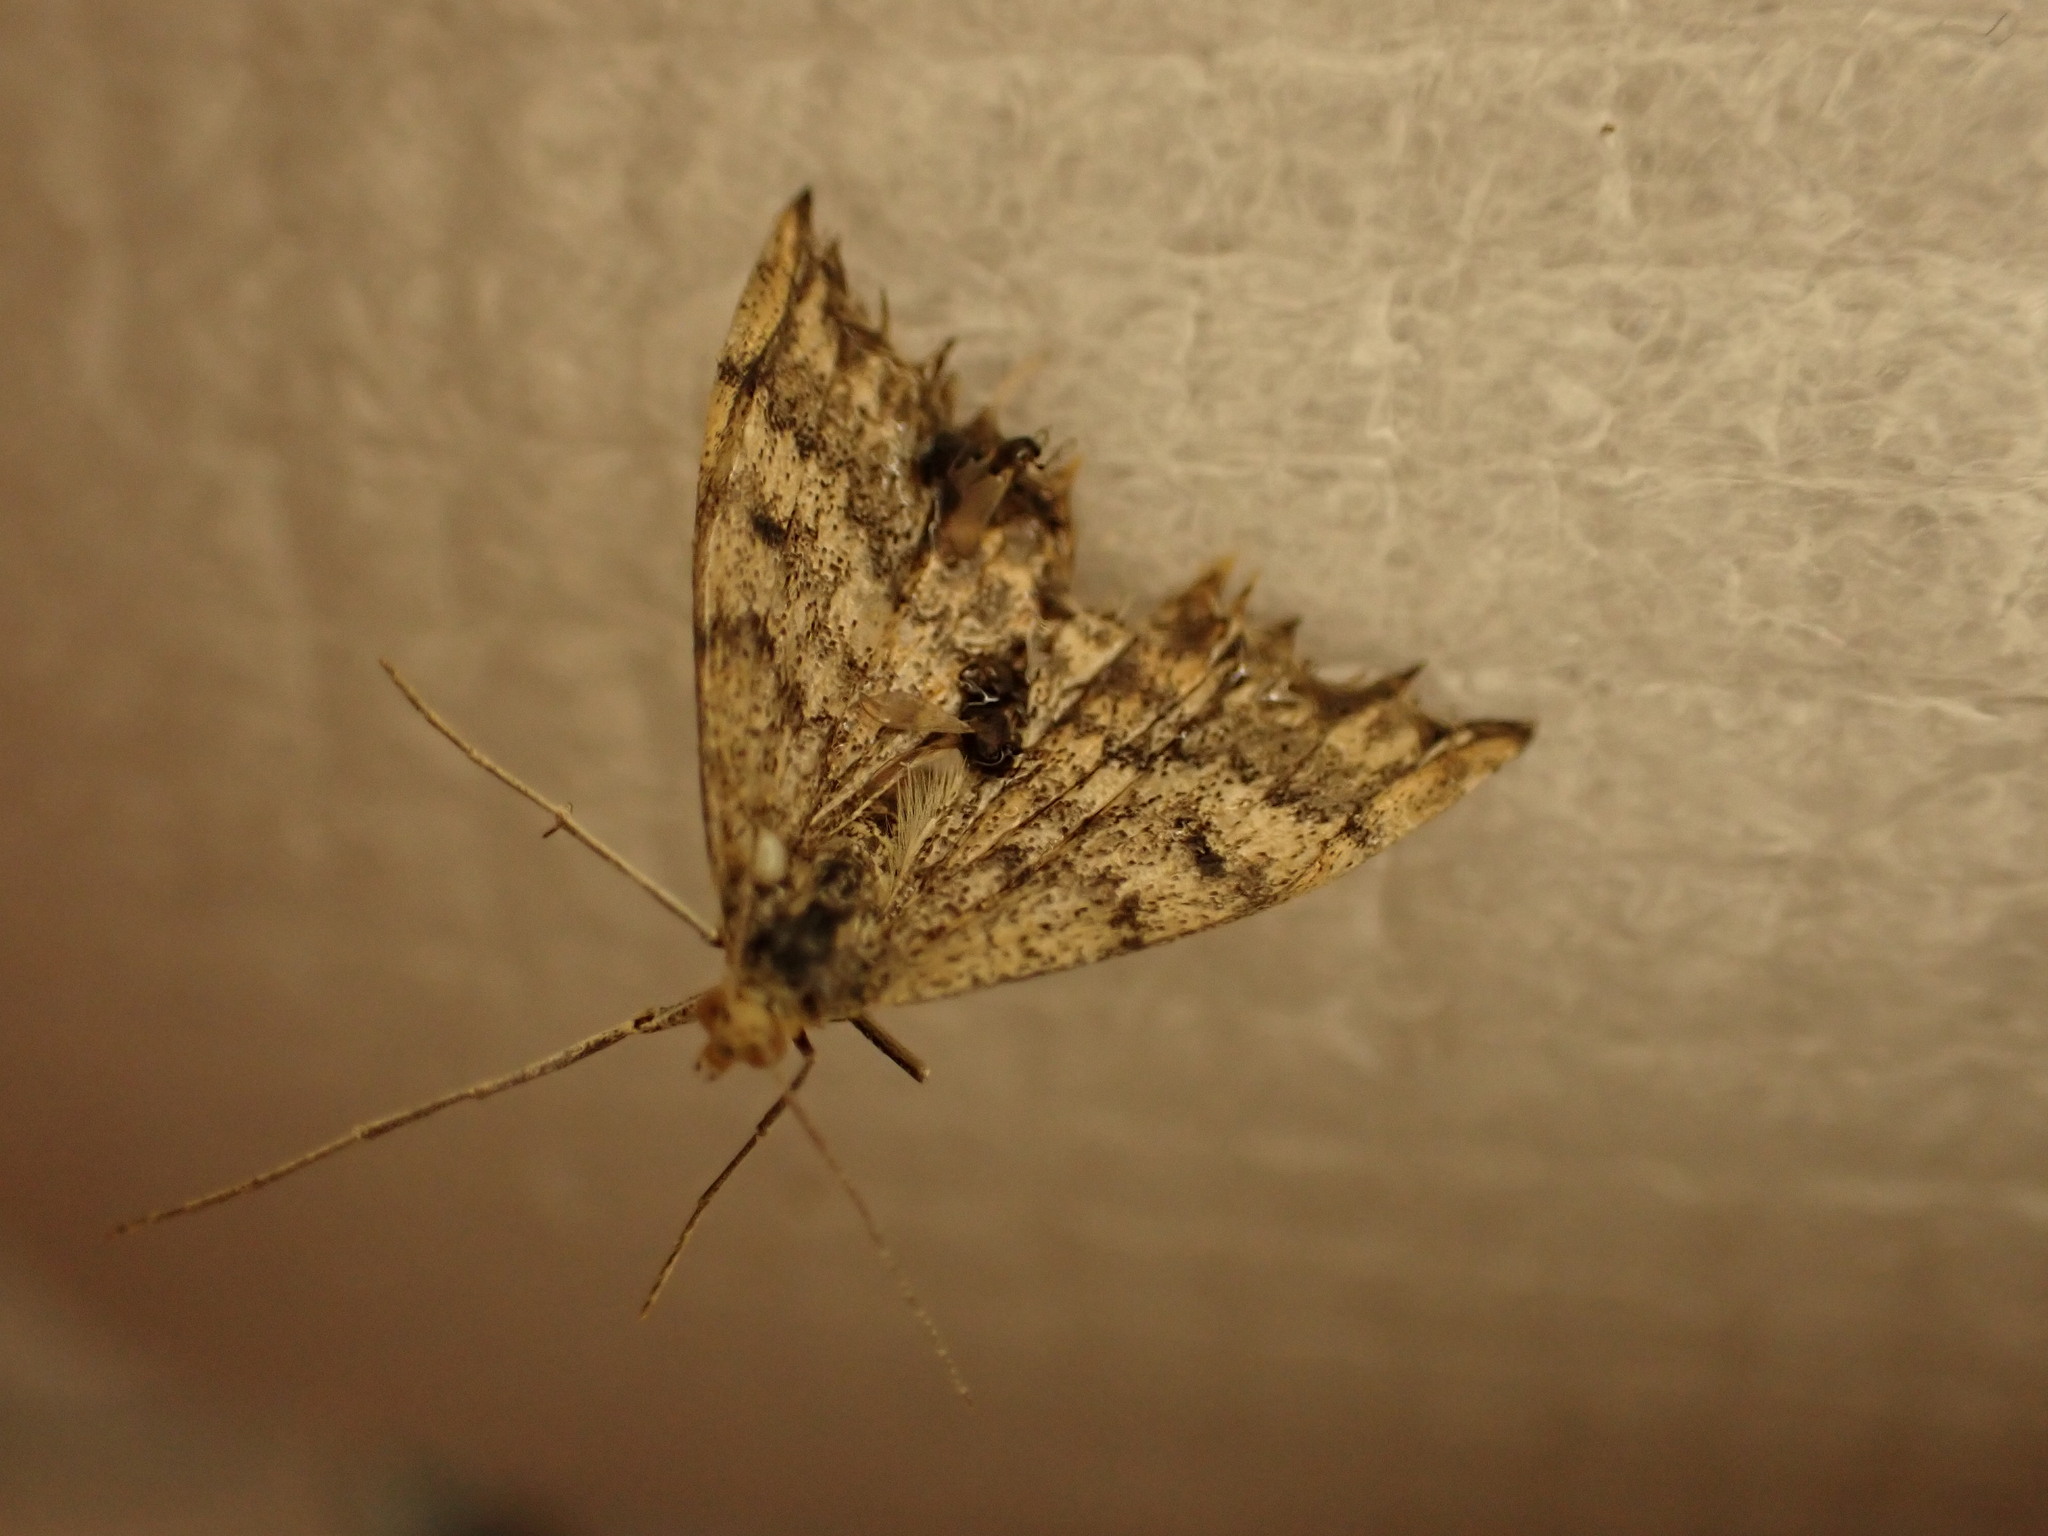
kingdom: Animalia
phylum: Arthropoda
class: Insecta
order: Lepidoptera
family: Geometridae
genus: Scopula
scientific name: Scopula rubraria
